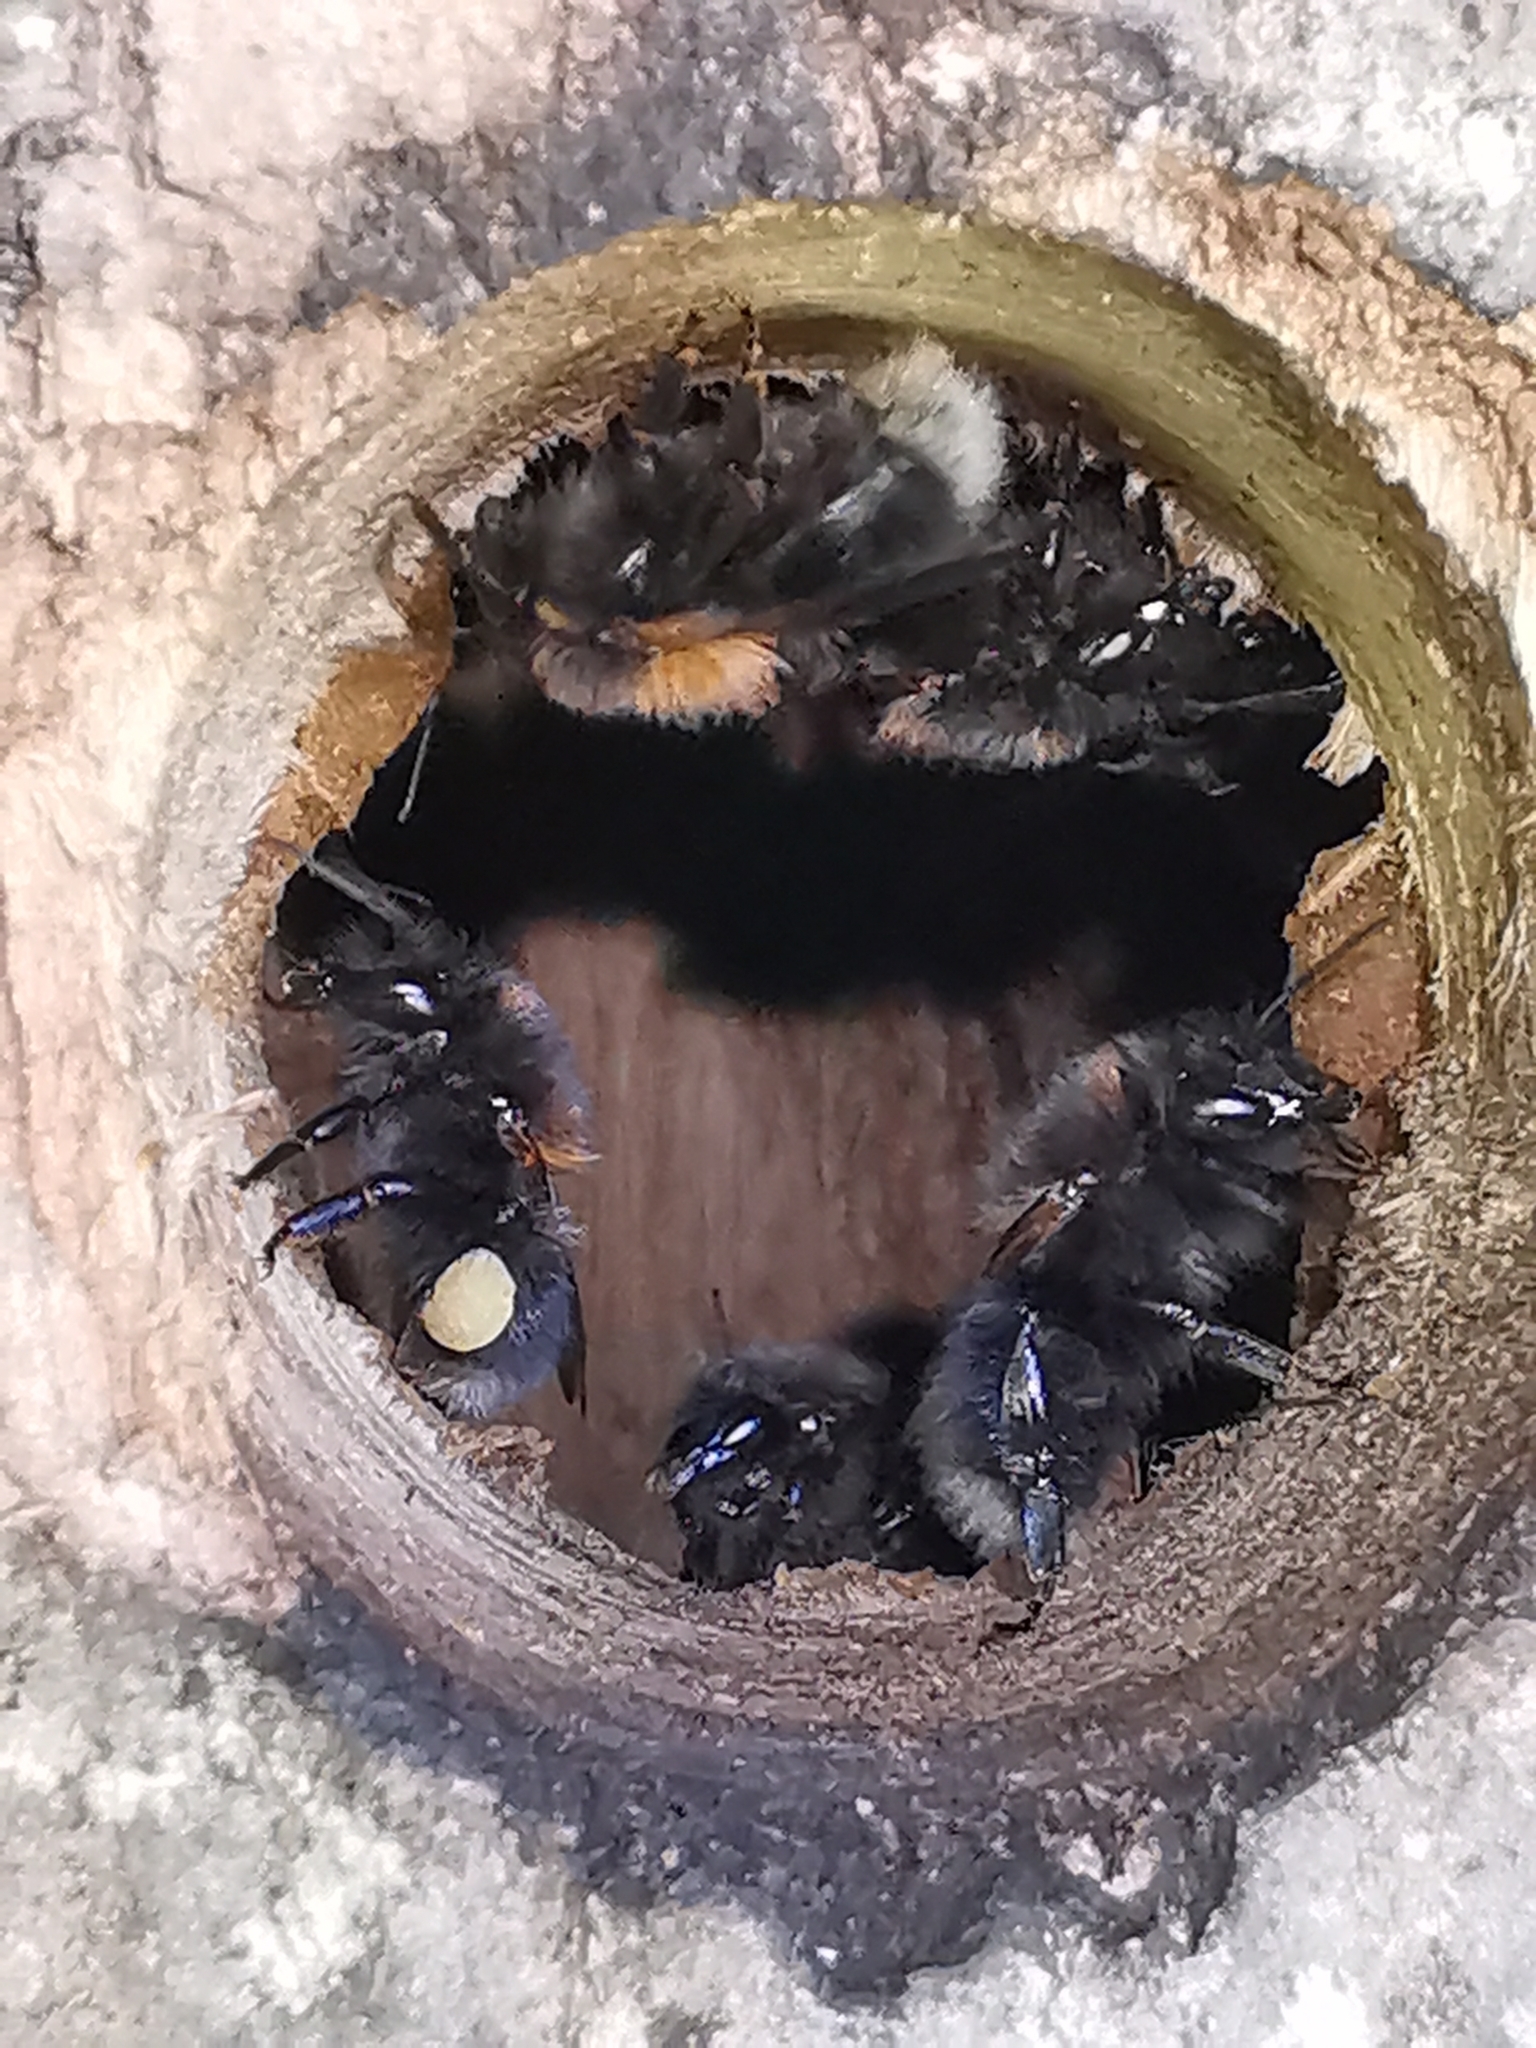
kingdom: Animalia
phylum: Arthropoda
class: Insecta
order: Hymenoptera
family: Apidae
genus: Bombus
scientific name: Bombus hypnorum
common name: New garden bumblebee
